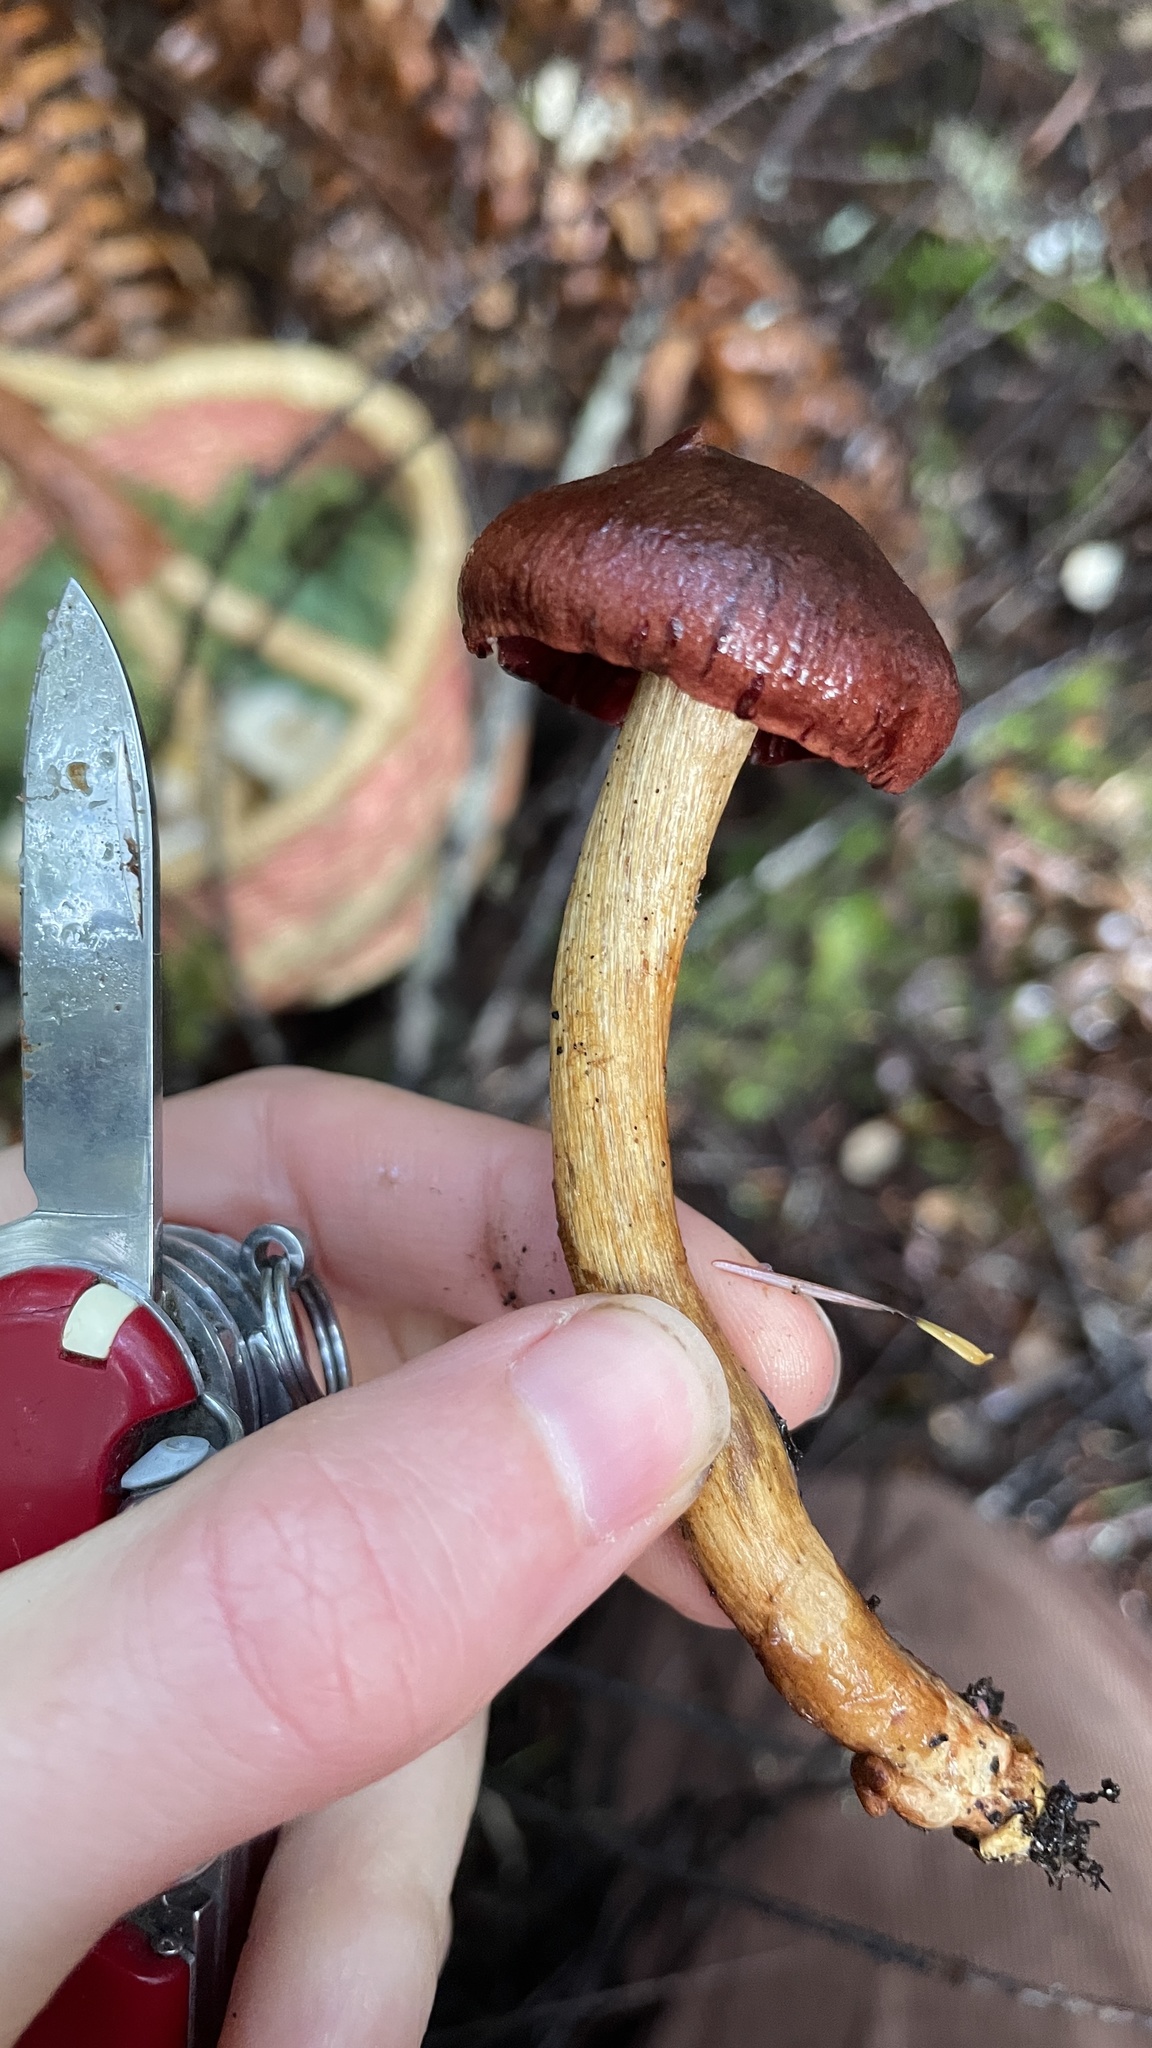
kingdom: Fungi
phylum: Basidiomycota
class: Agaricomycetes
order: Agaricales
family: Cortinariaceae
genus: Cortinarius
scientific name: Cortinarius smithii
